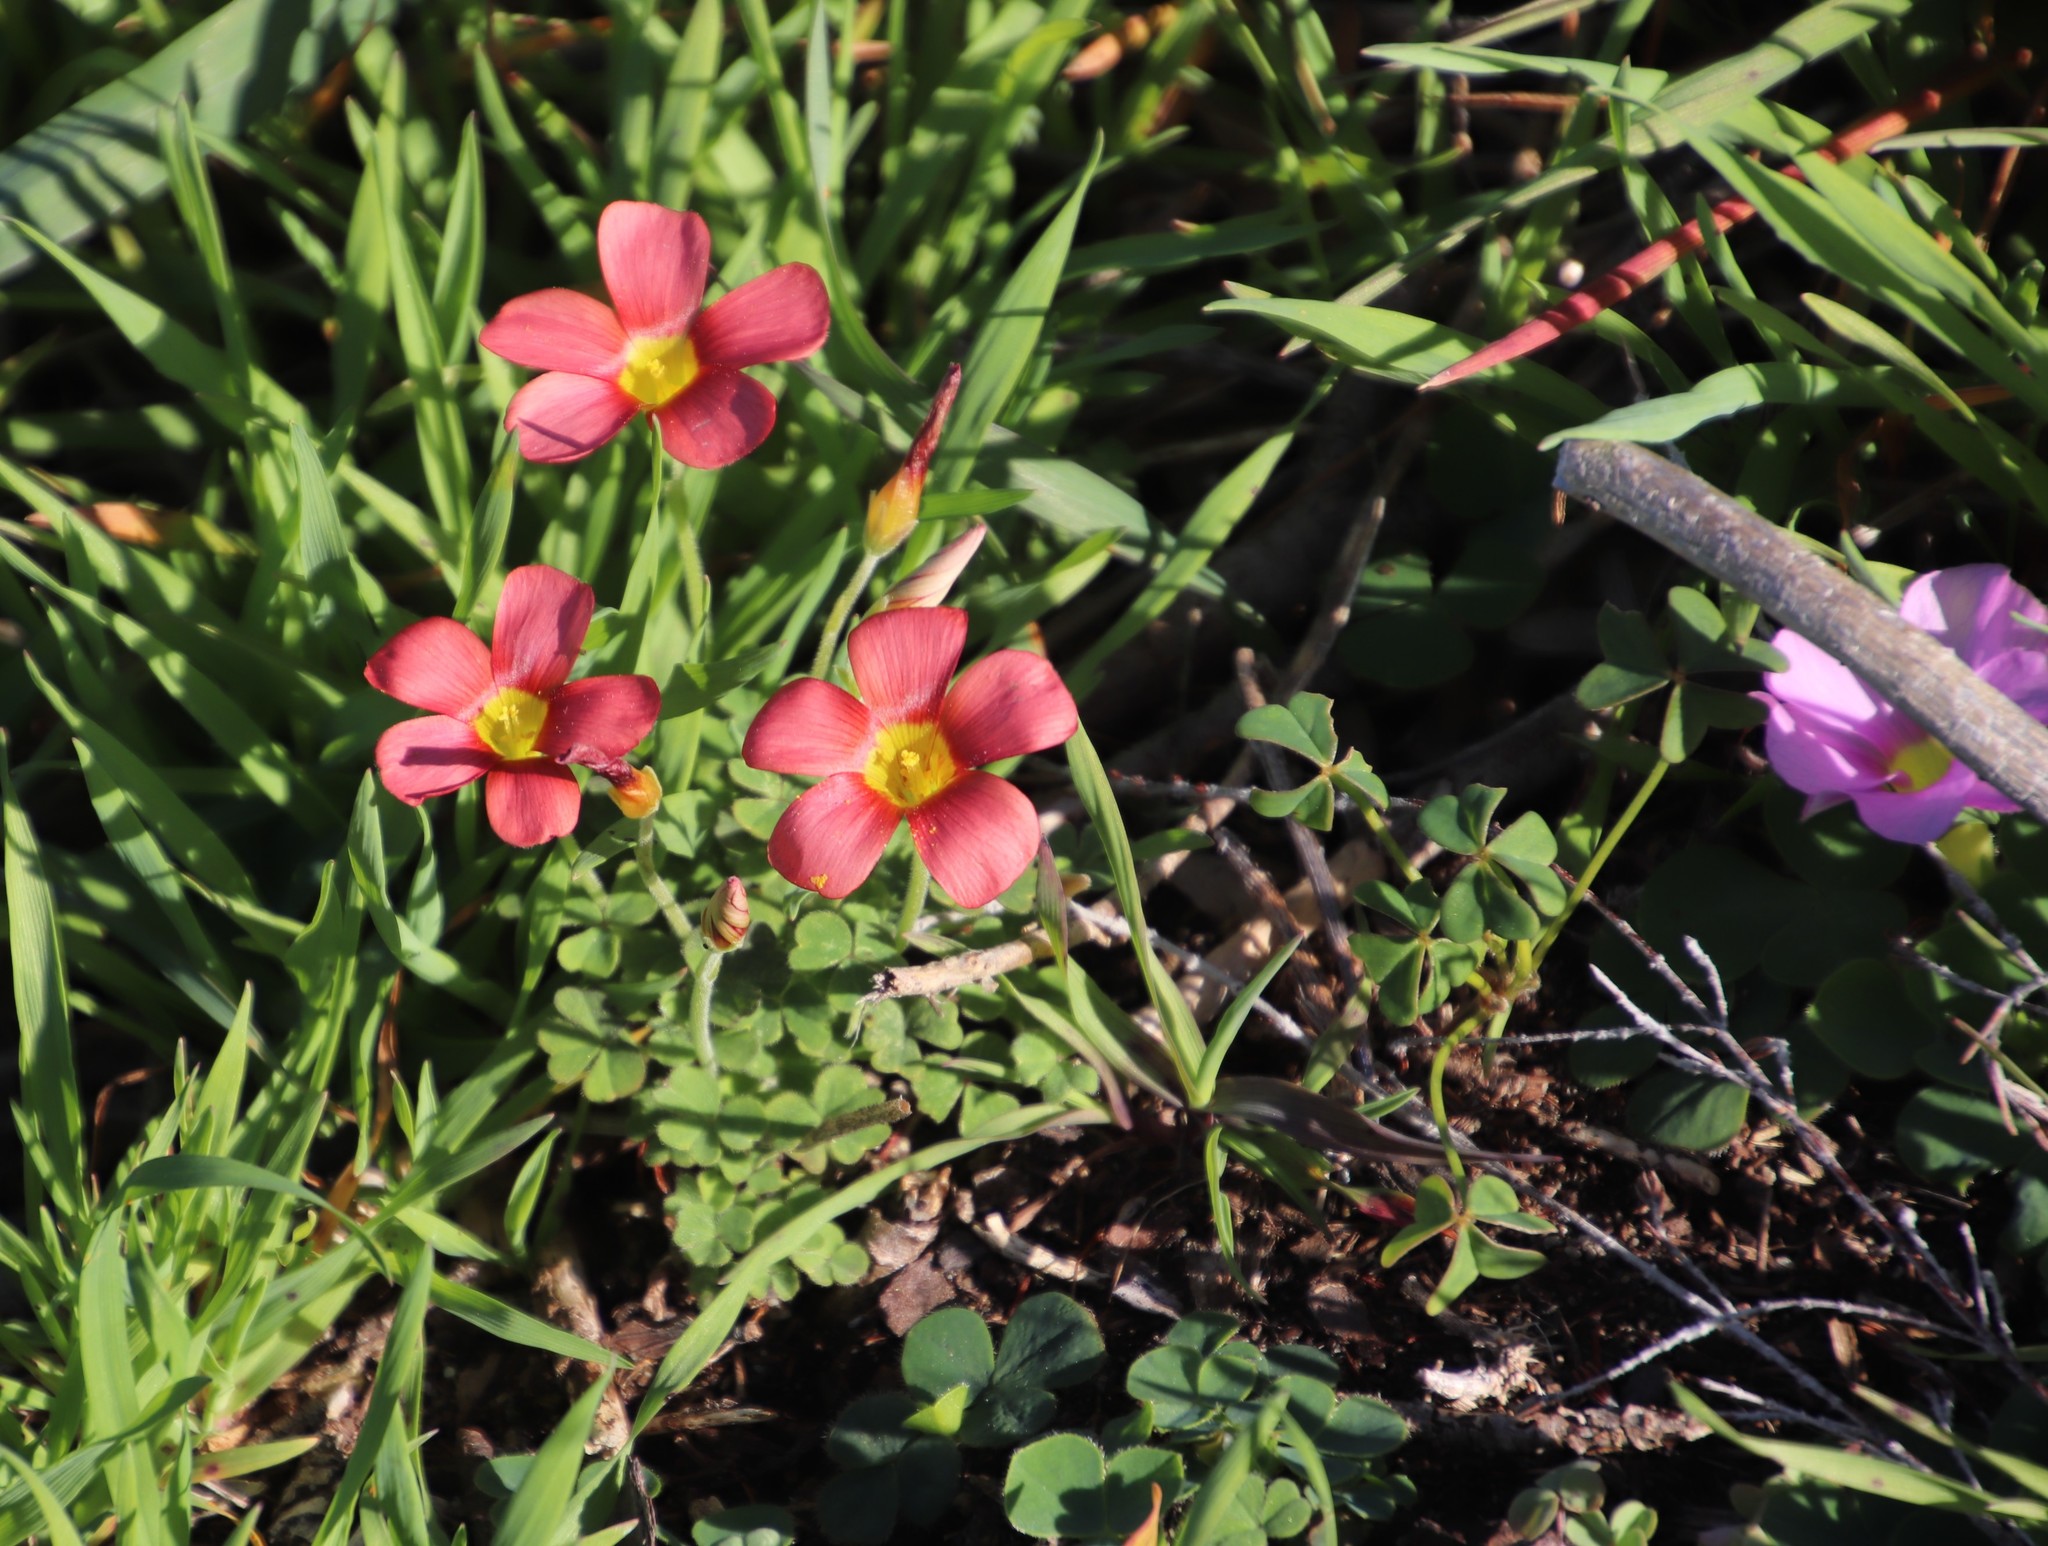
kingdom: Plantae
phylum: Tracheophyta
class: Magnoliopsida
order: Oxalidales
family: Oxalidaceae
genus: Oxalis
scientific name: Oxalis obtusa
